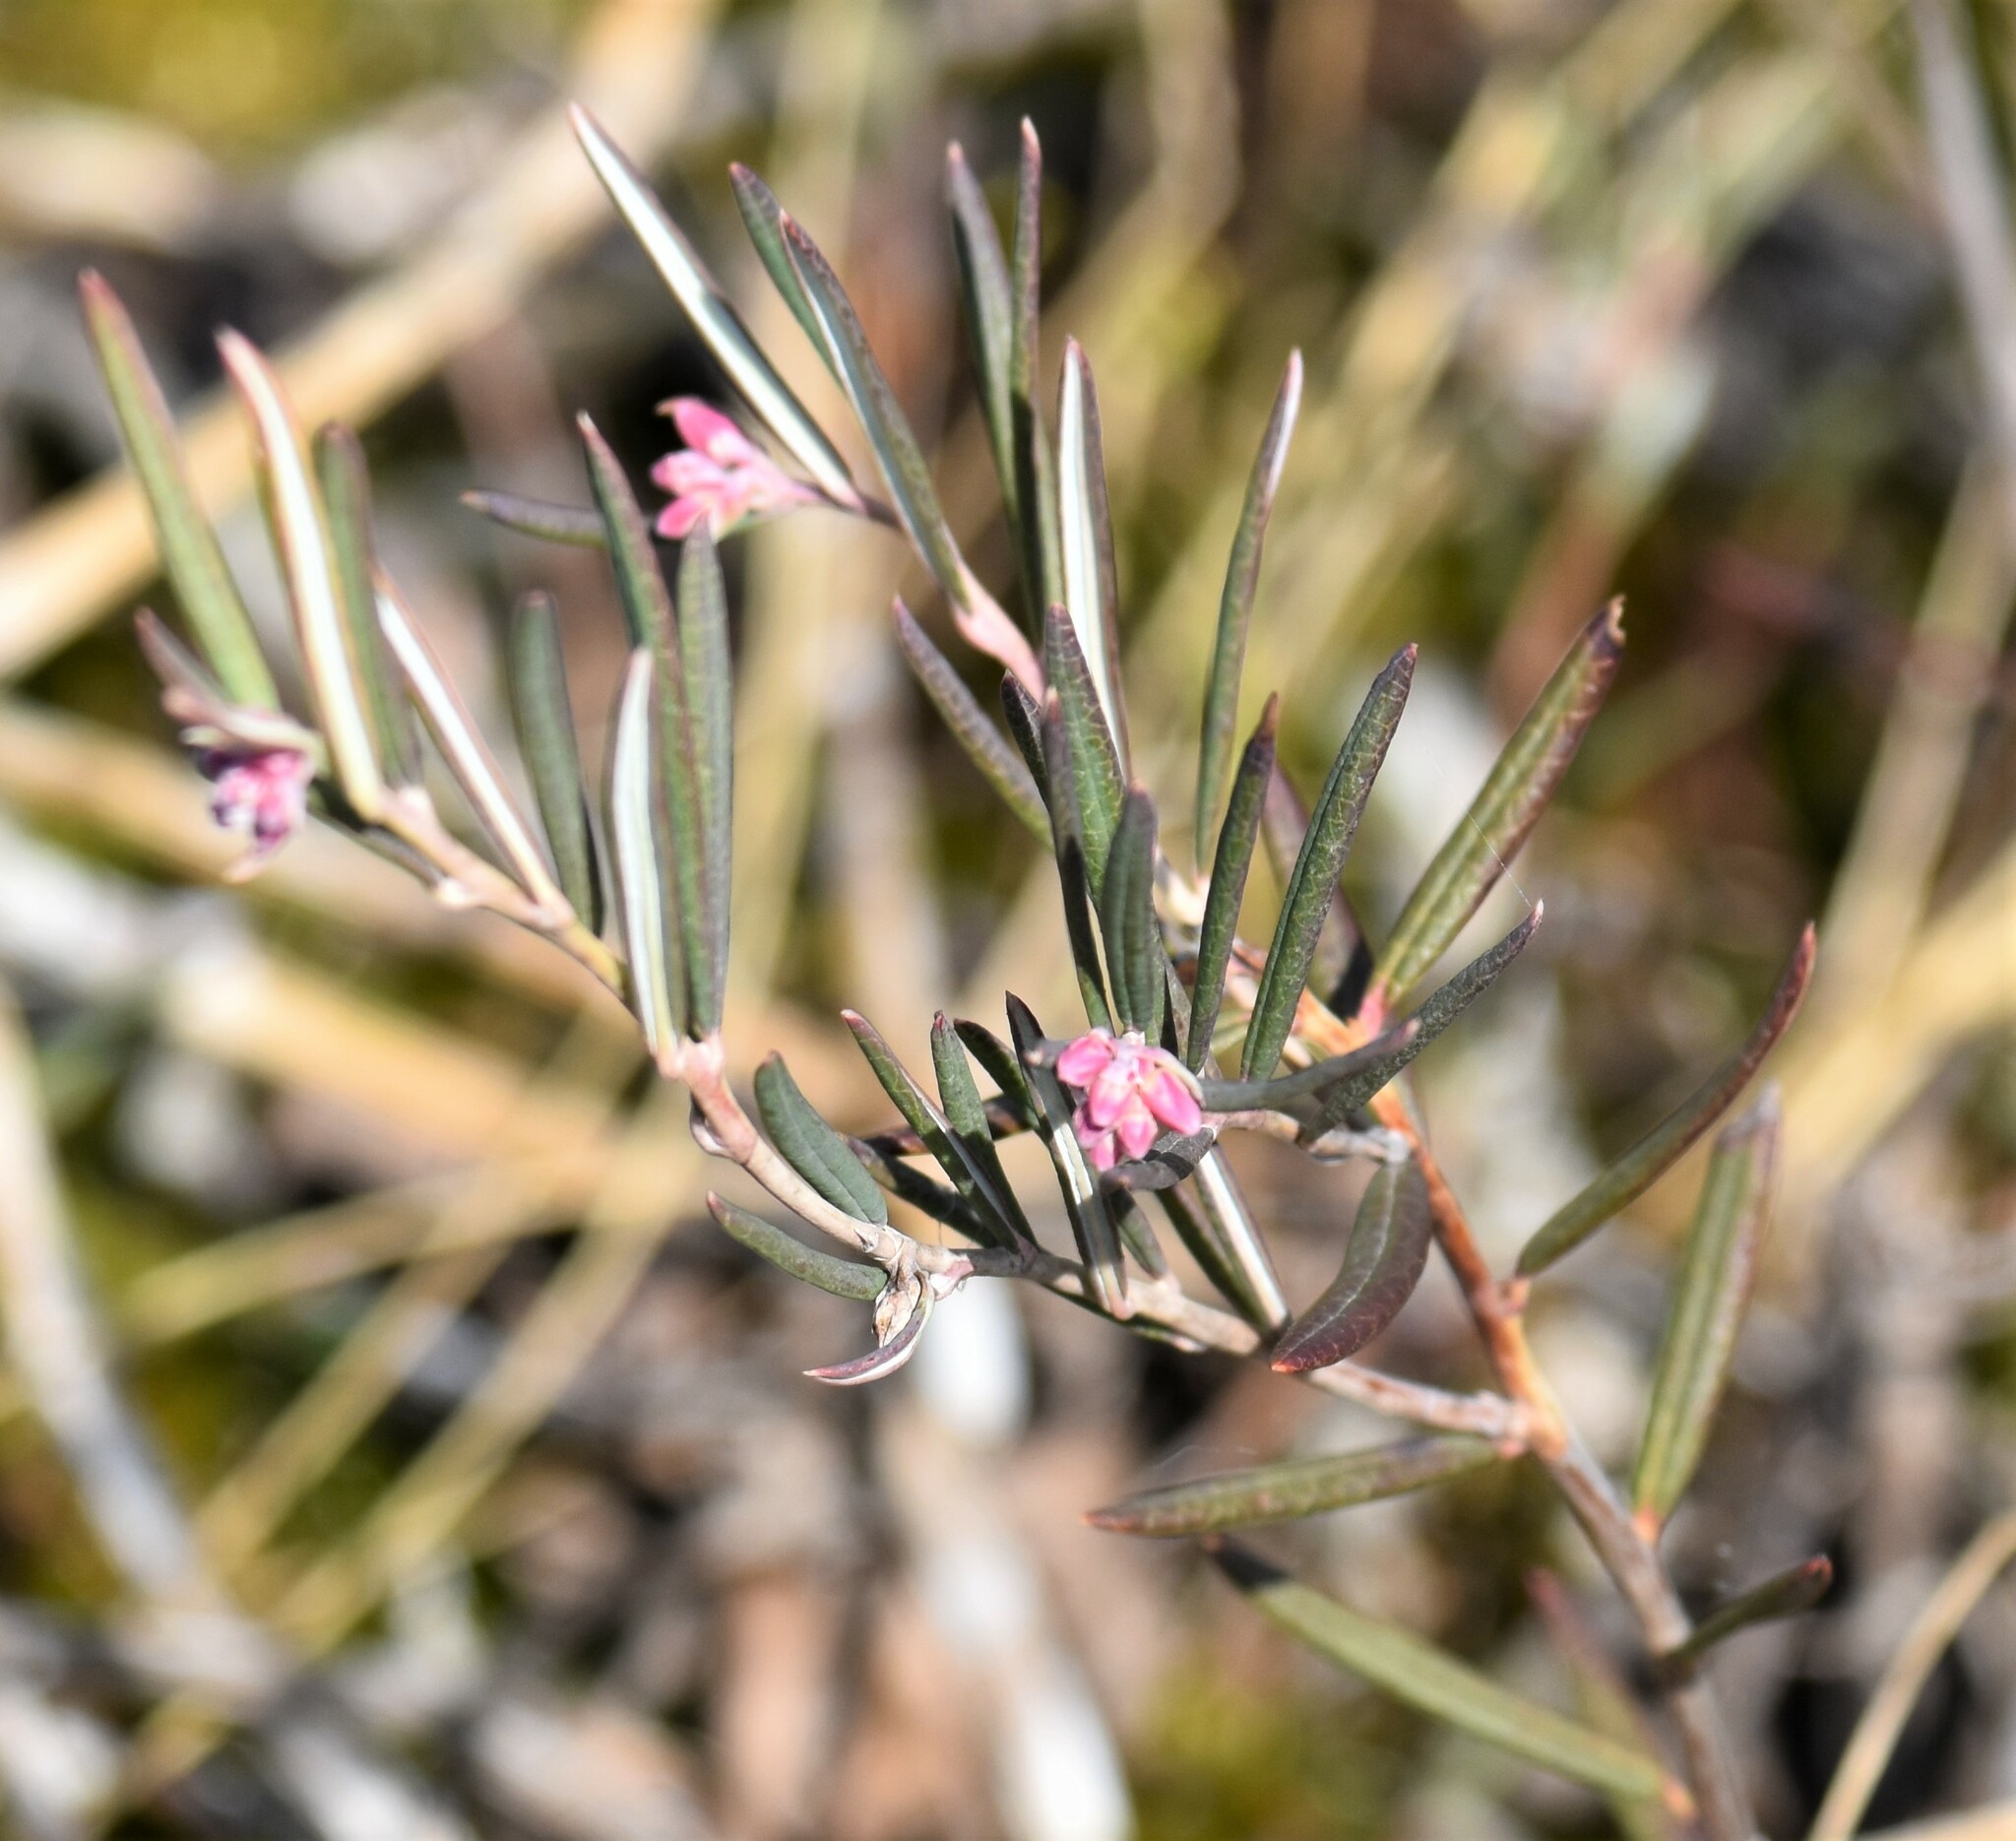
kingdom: Plantae
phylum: Tracheophyta
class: Magnoliopsida
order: Ericales
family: Ericaceae
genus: Andromeda
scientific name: Andromeda polifolia
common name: Bog-rosemary
